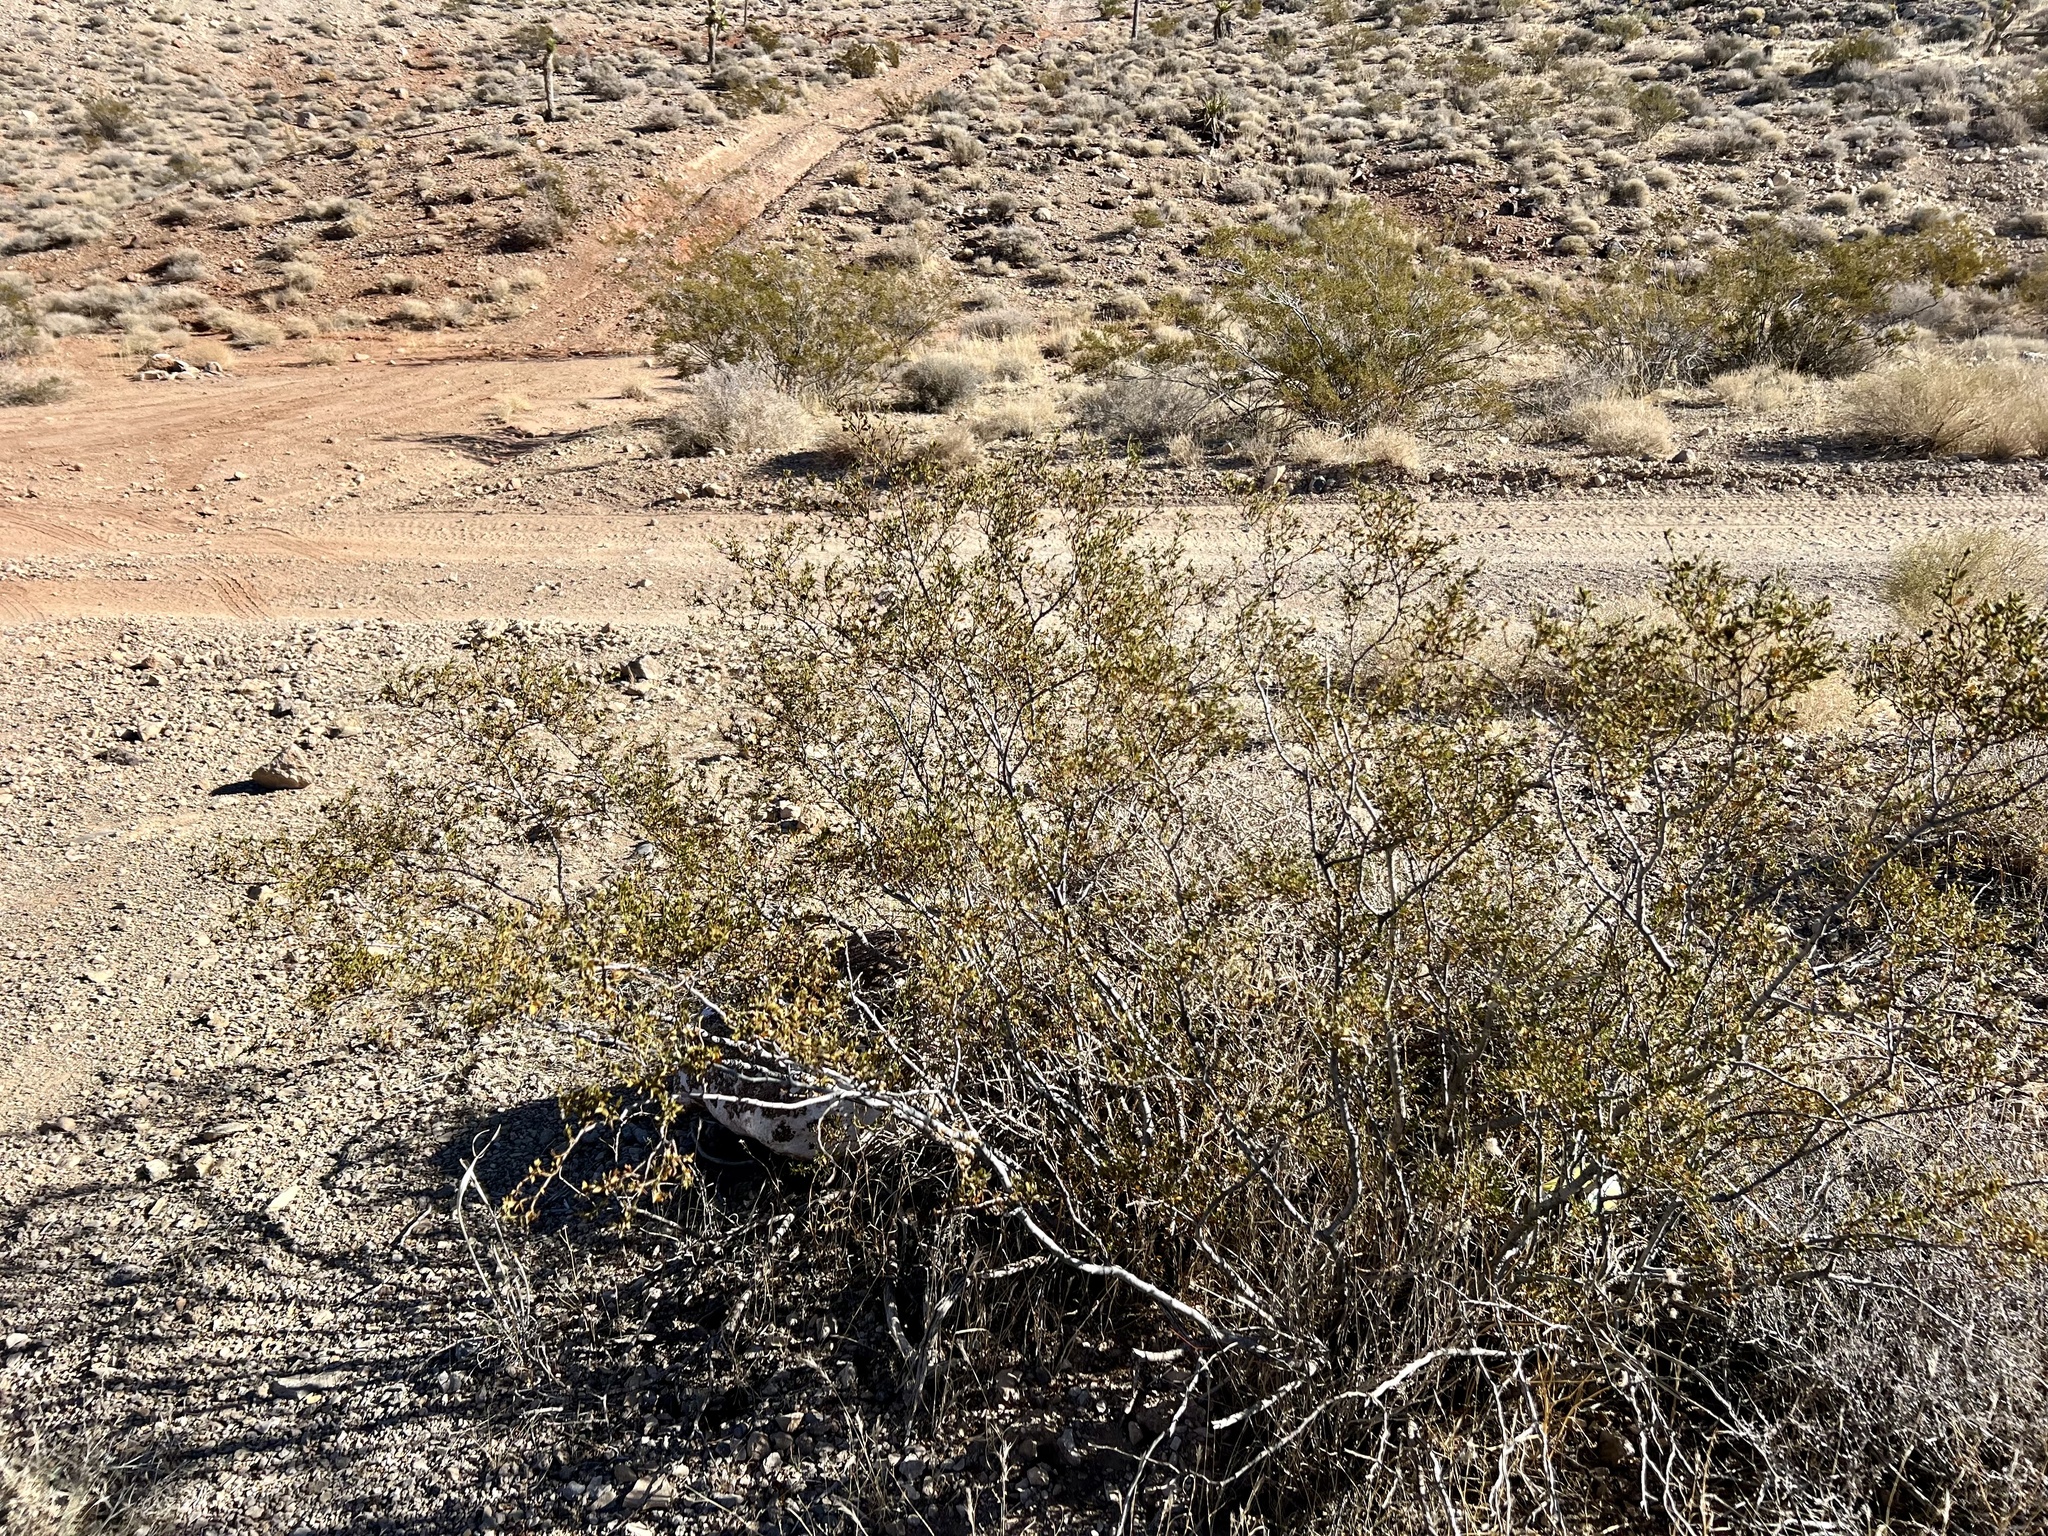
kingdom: Plantae
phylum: Tracheophyta
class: Magnoliopsida
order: Zygophyllales
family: Zygophyllaceae
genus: Larrea
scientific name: Larrea tridentata
